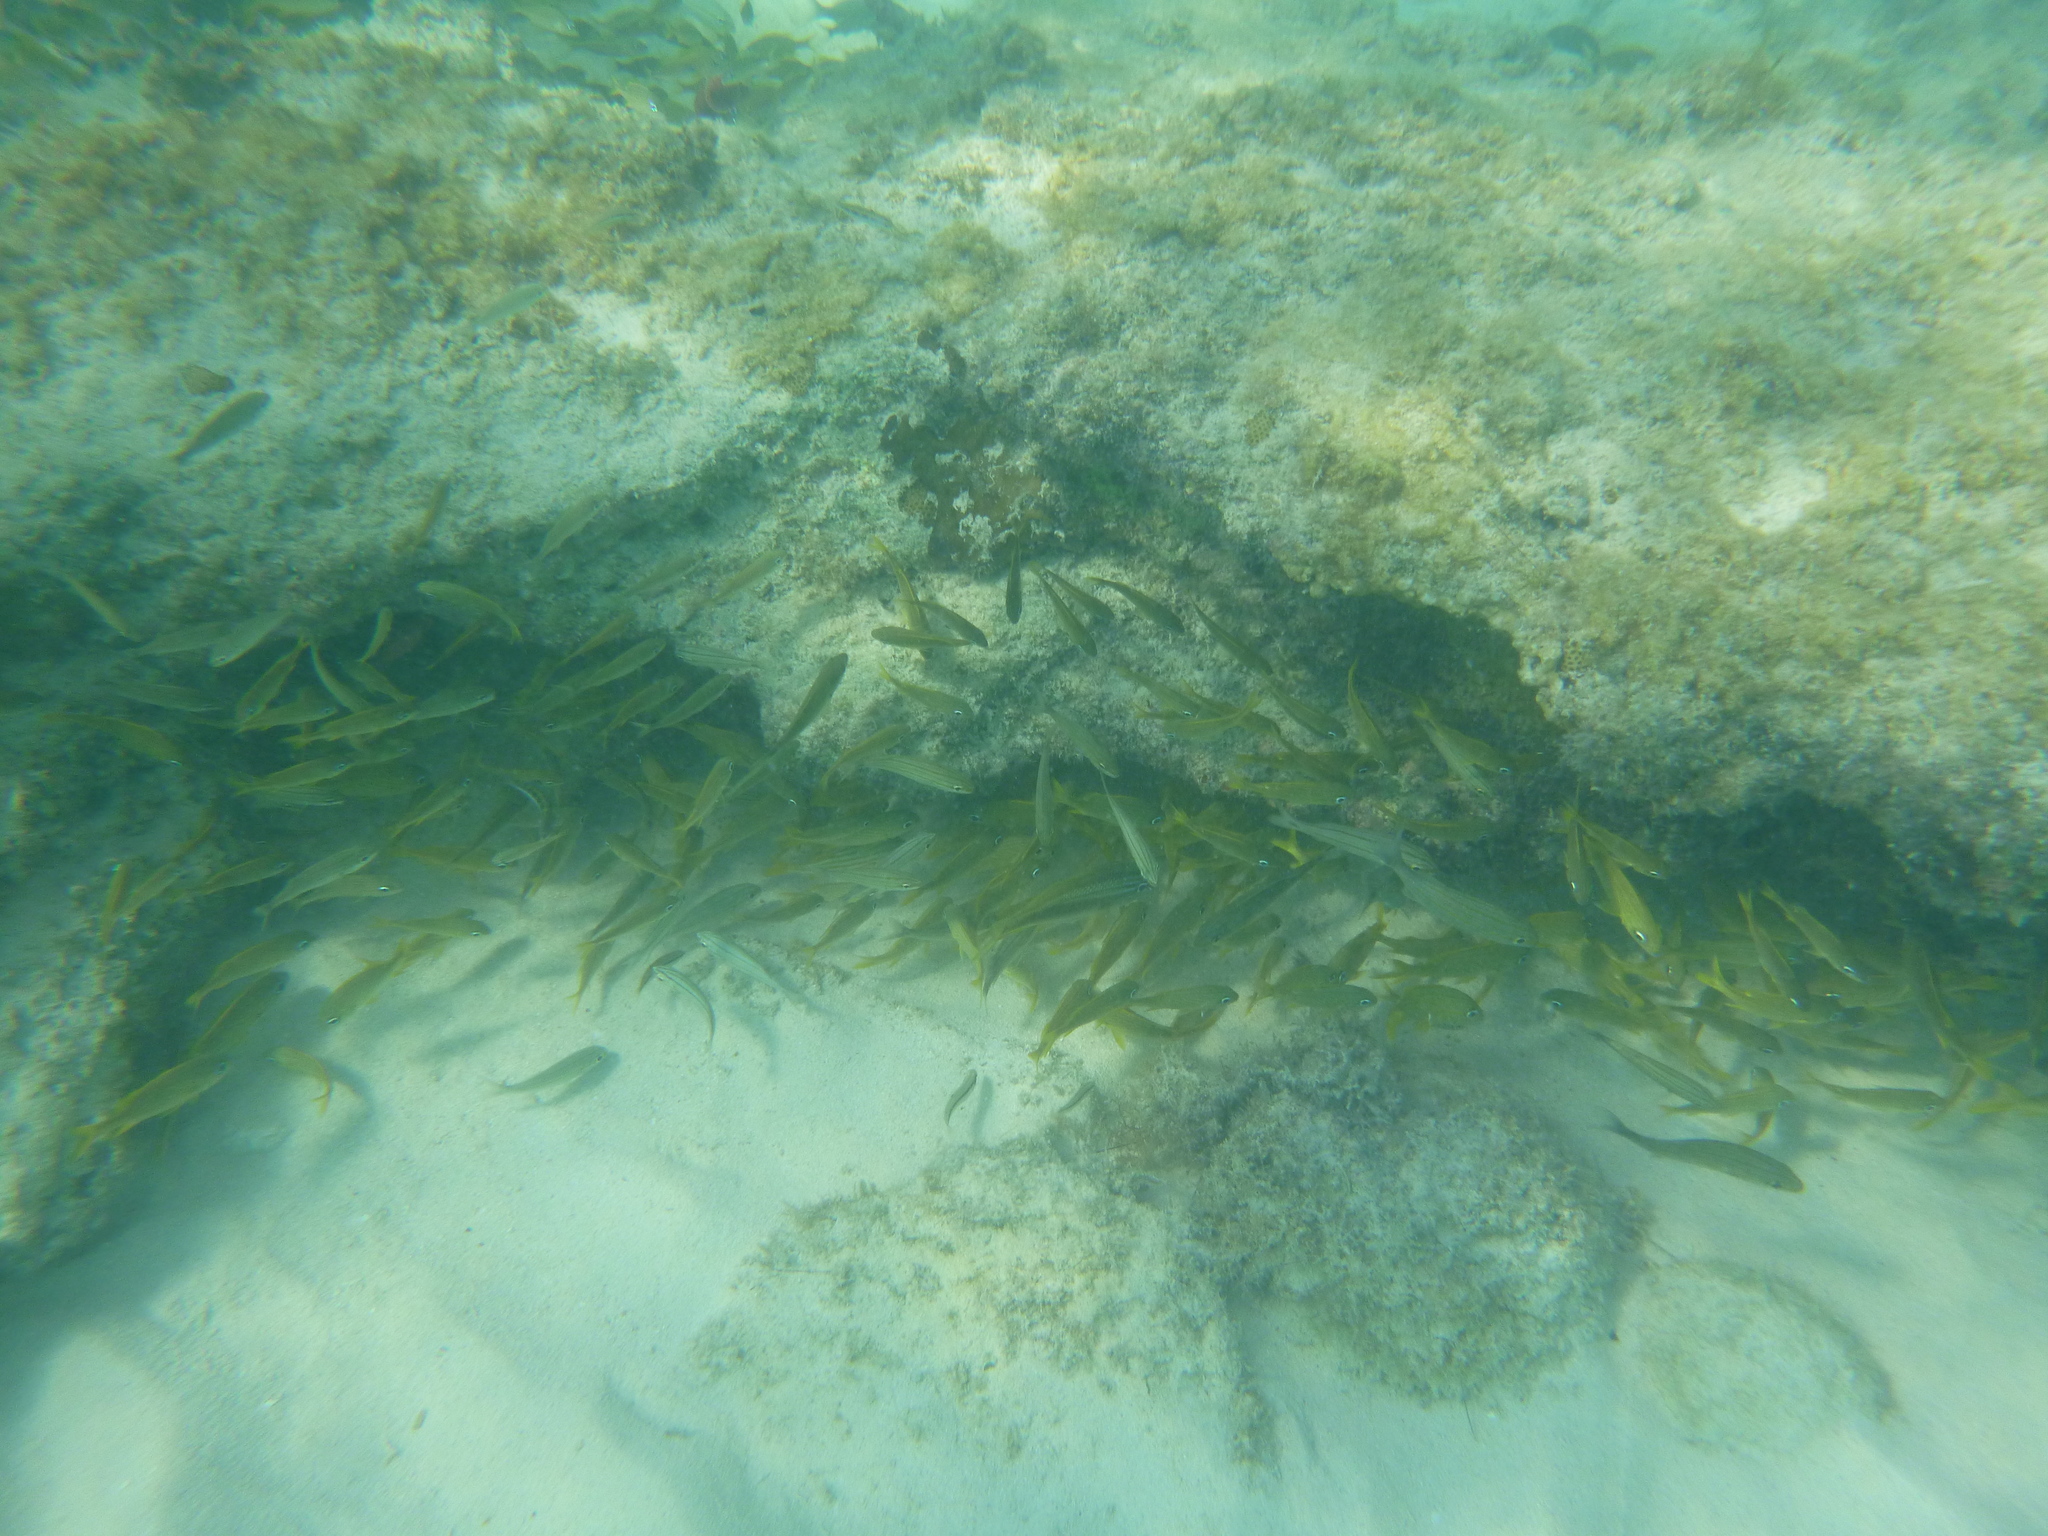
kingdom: Animalia
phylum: Chordata
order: Perciformes
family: Haemulidae
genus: Haemulon
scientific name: Haemulon flavolineatum
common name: French grunt
